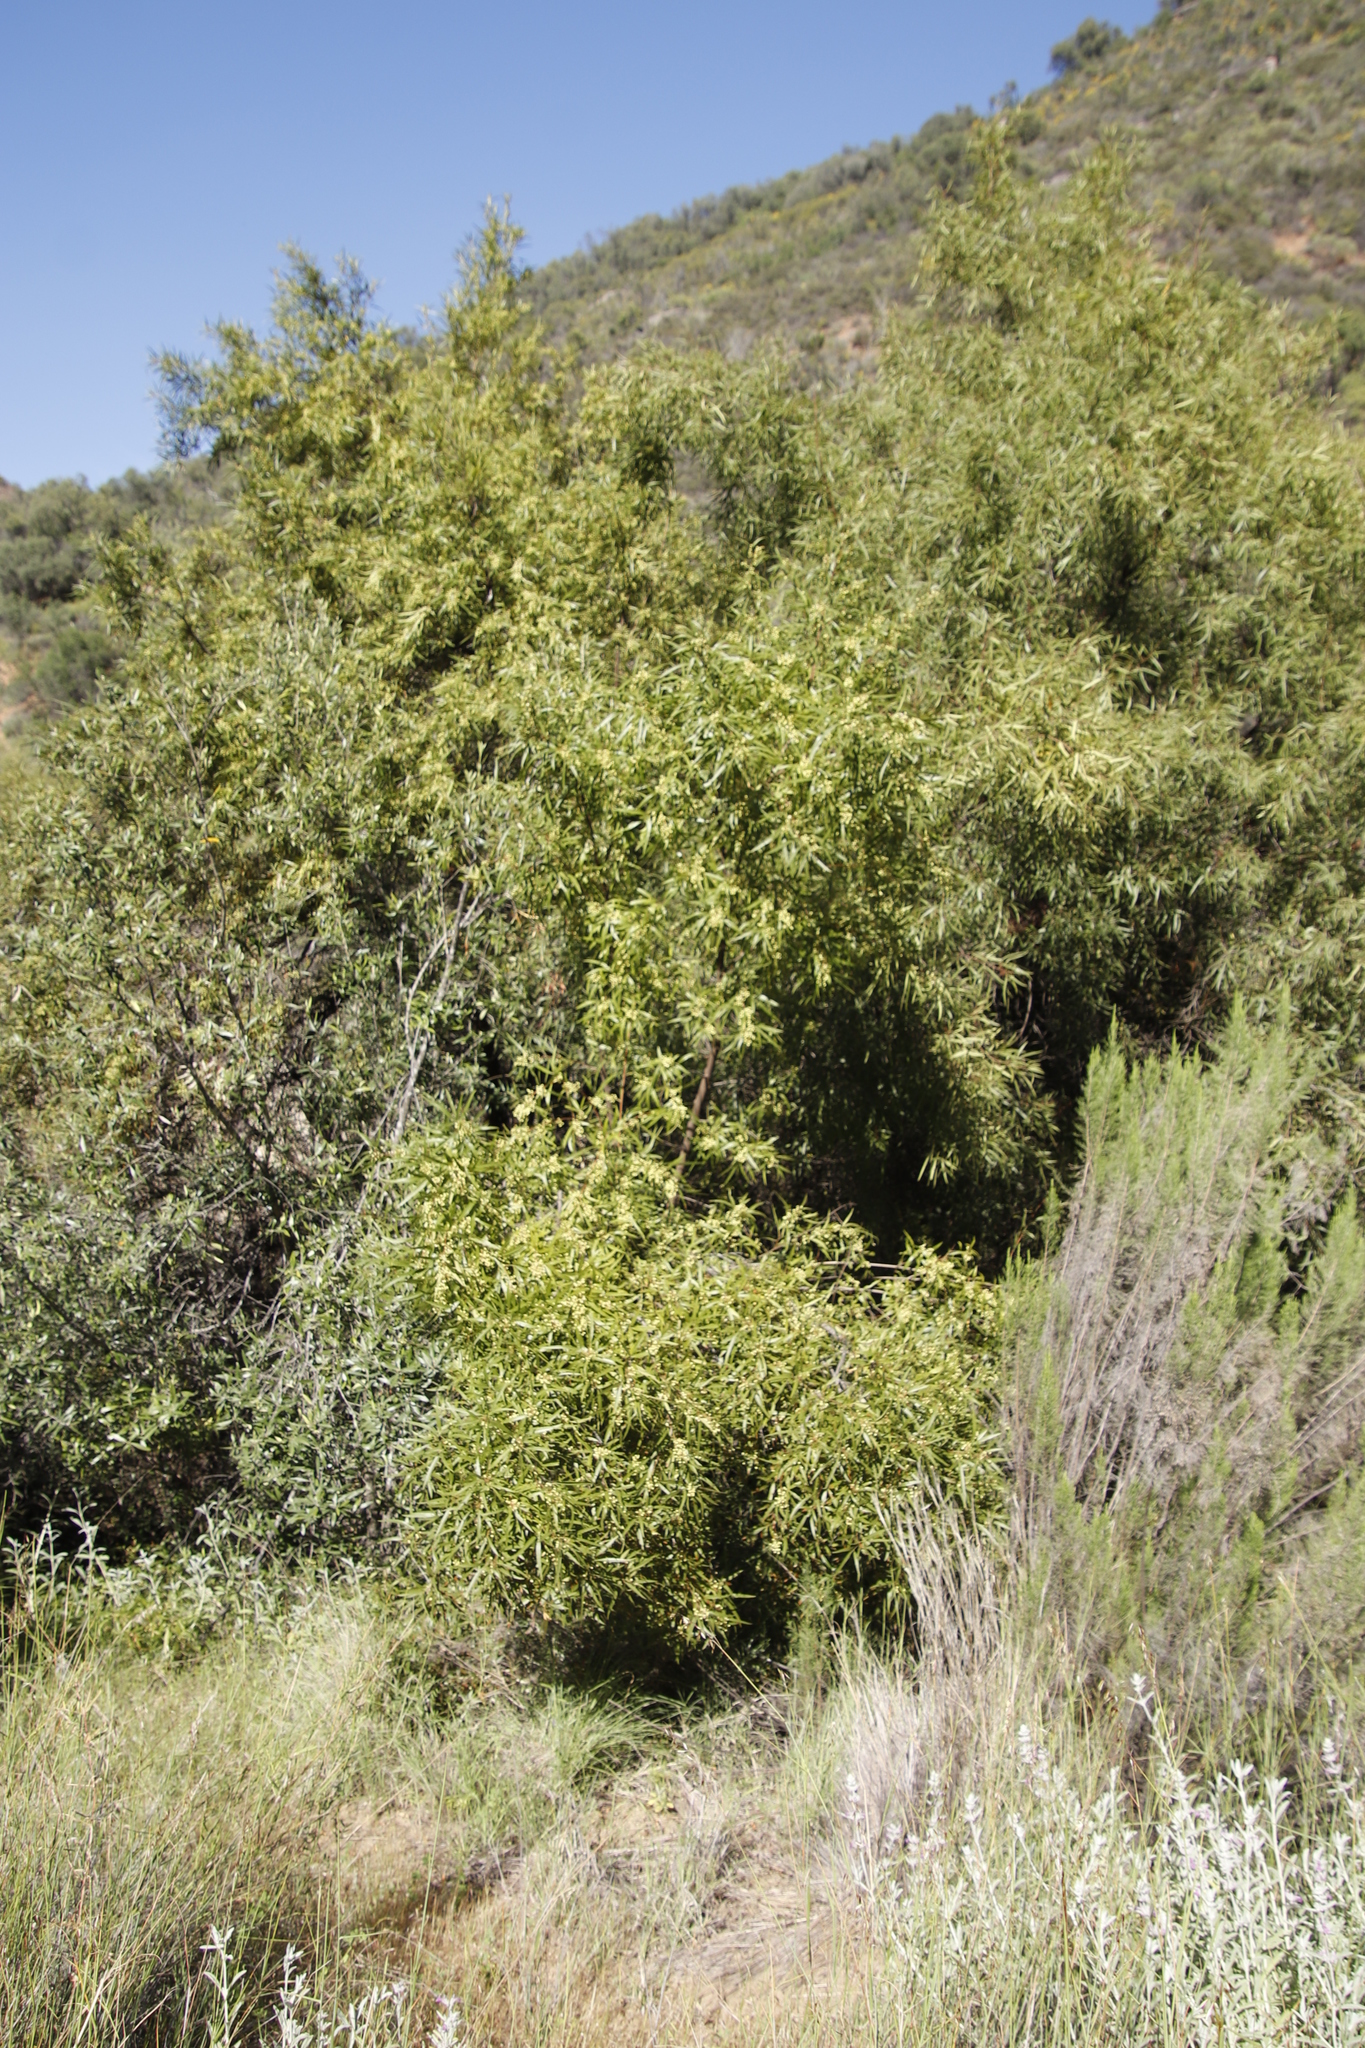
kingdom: Plantae
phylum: Tracheophyta
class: Magnoliopsida
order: Sapindales
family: Anacardiaceae
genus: Searsia
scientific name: Searsia lancea
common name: Cashew
